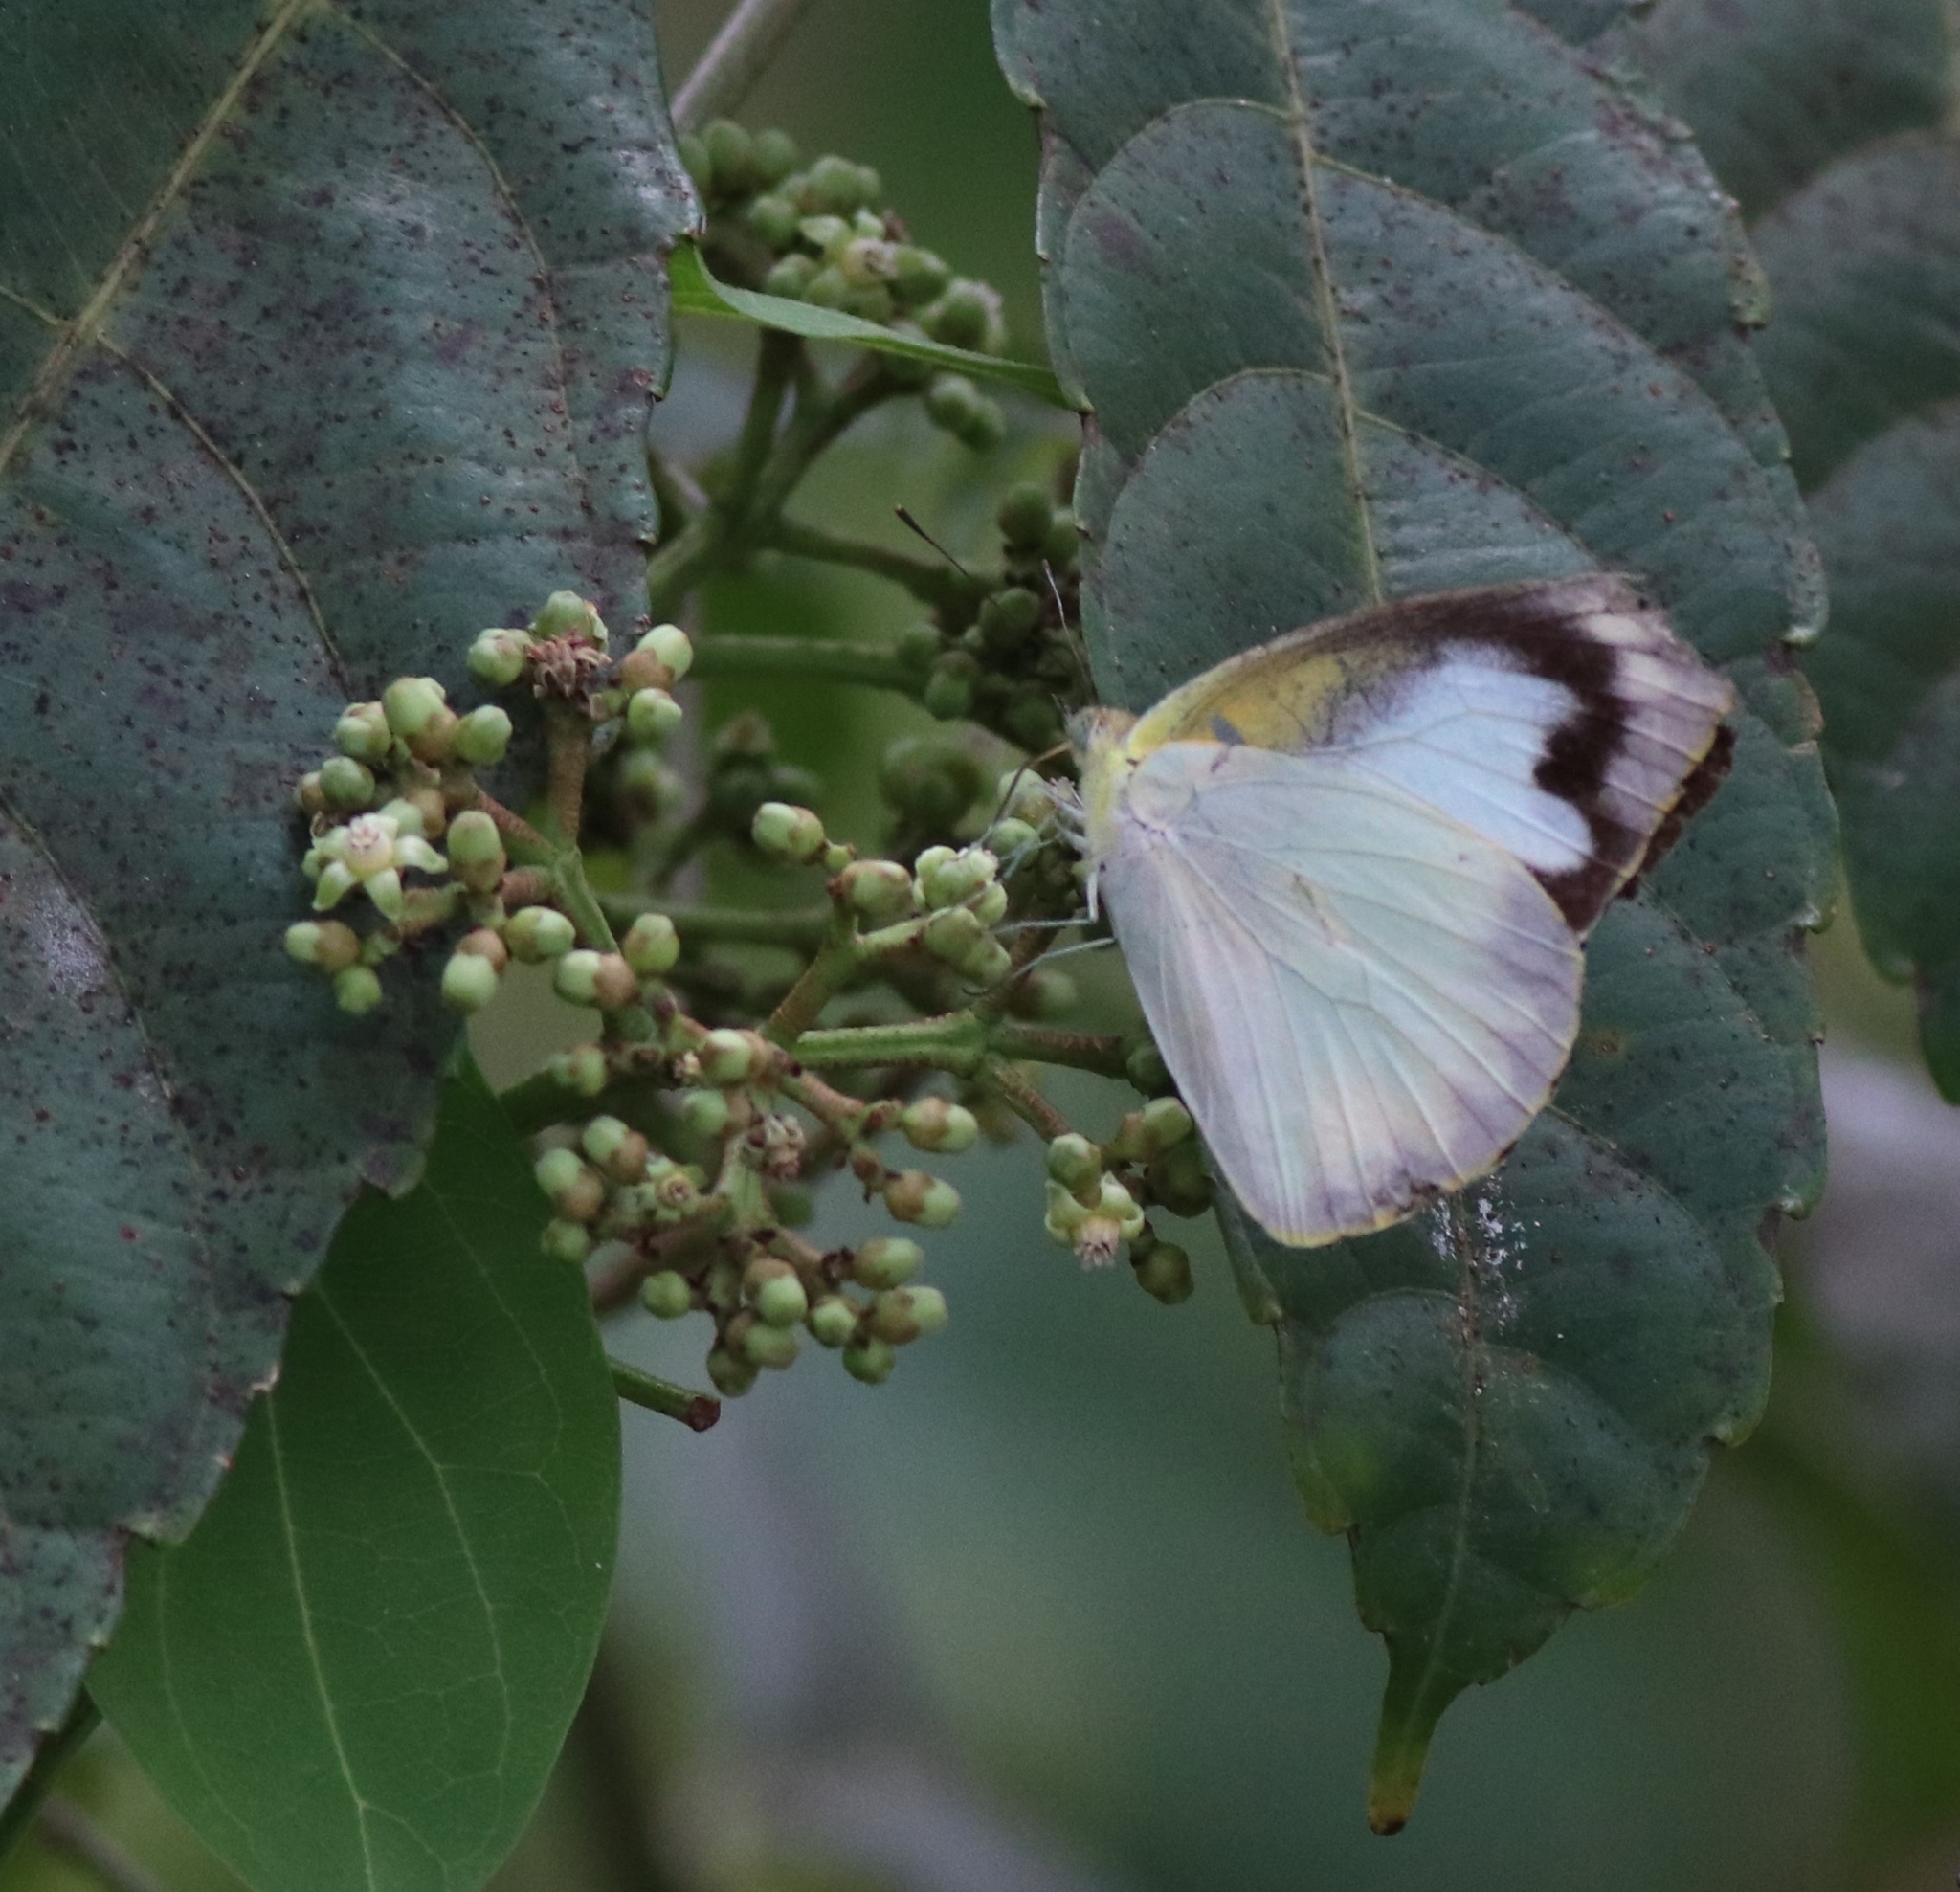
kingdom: Animalia
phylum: Arthropoda
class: Insecta
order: Lepidoptera
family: Pieridae
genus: Appias
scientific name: Appias albina
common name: Common albatross
